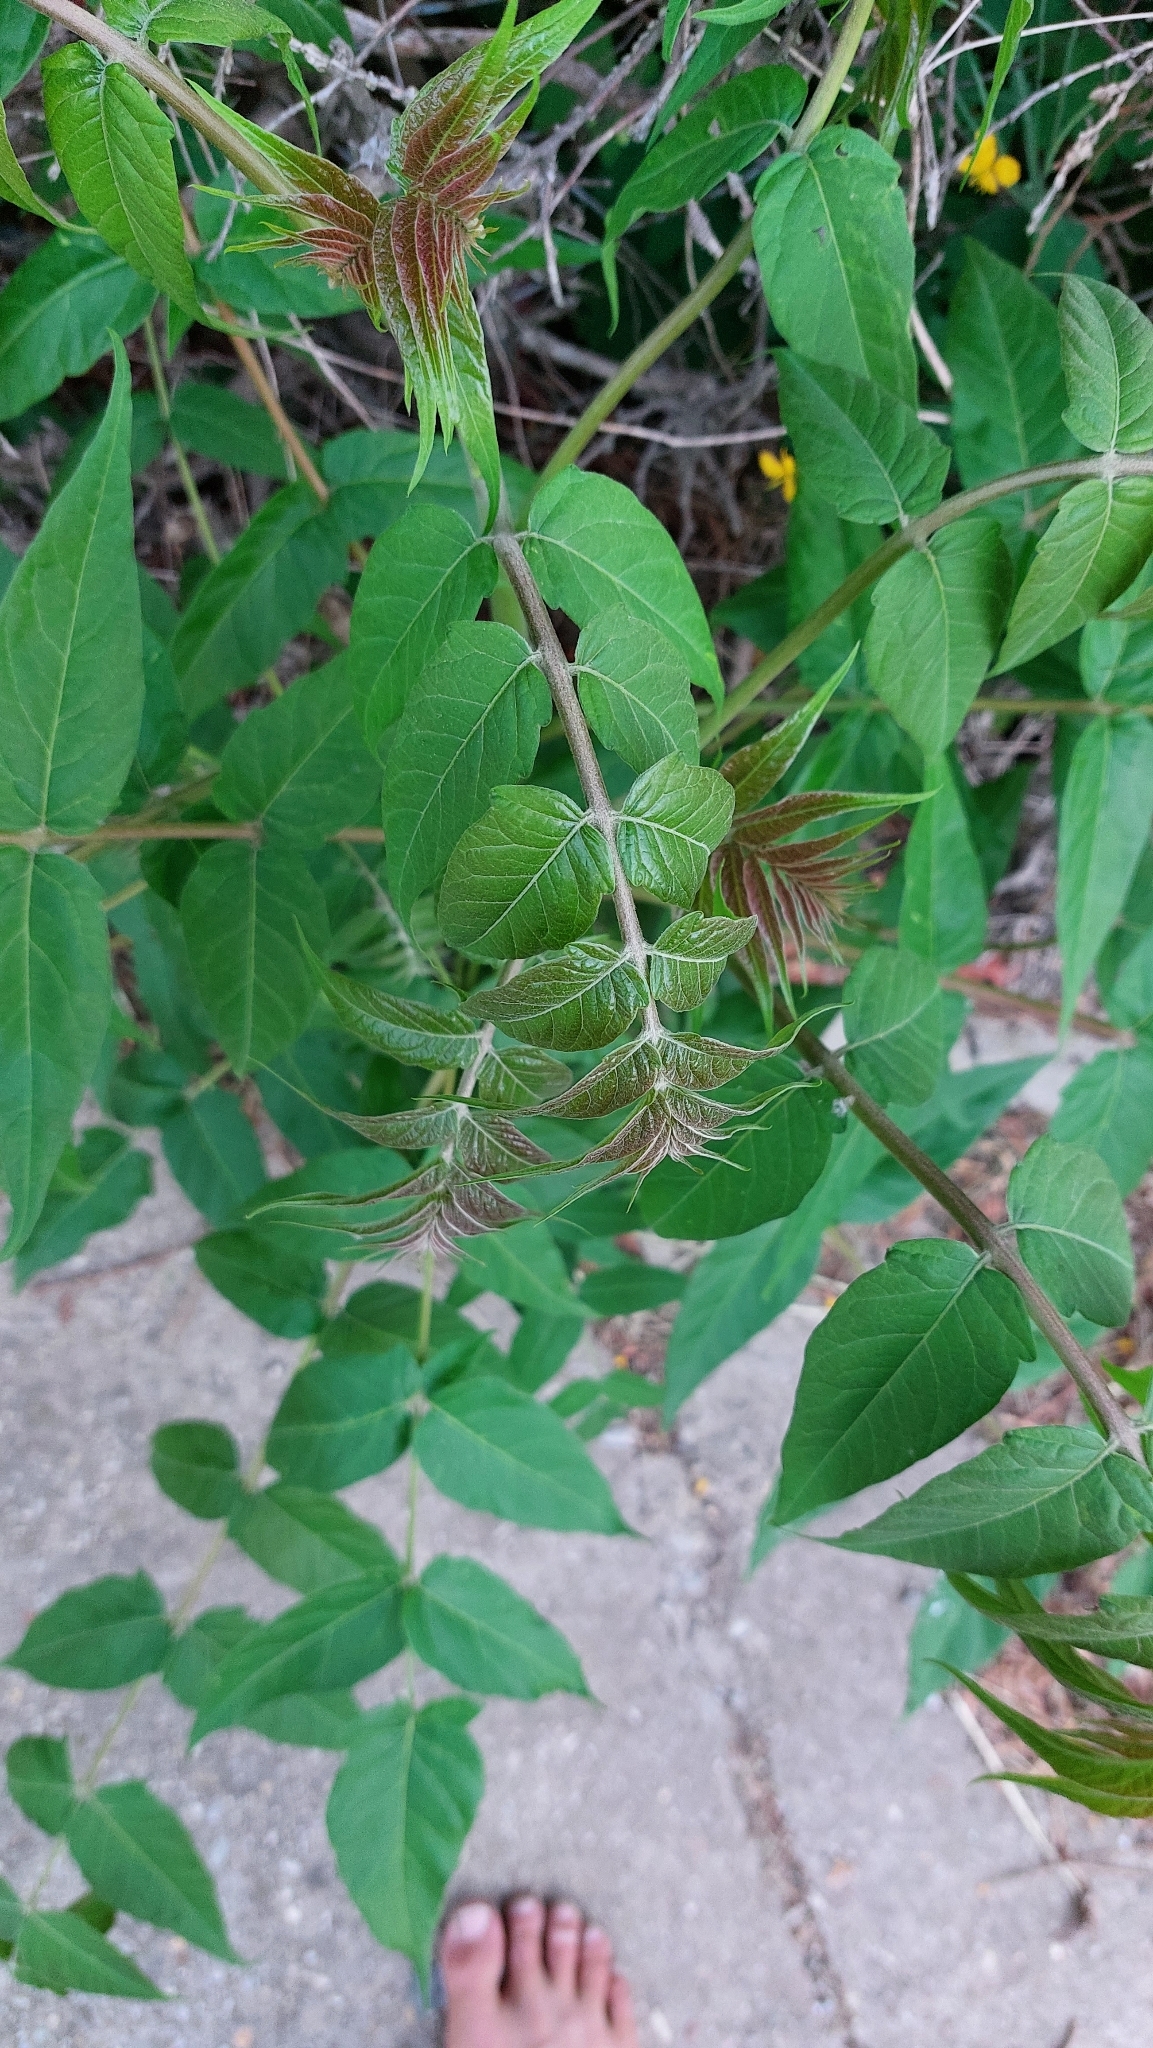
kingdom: Plantae
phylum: Tracheophyta
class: Magnoliopsida
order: Sapindales
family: Simaroubaceae
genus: Ailanthus
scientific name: Ailanthus altissima
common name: Tree-of-heaven
